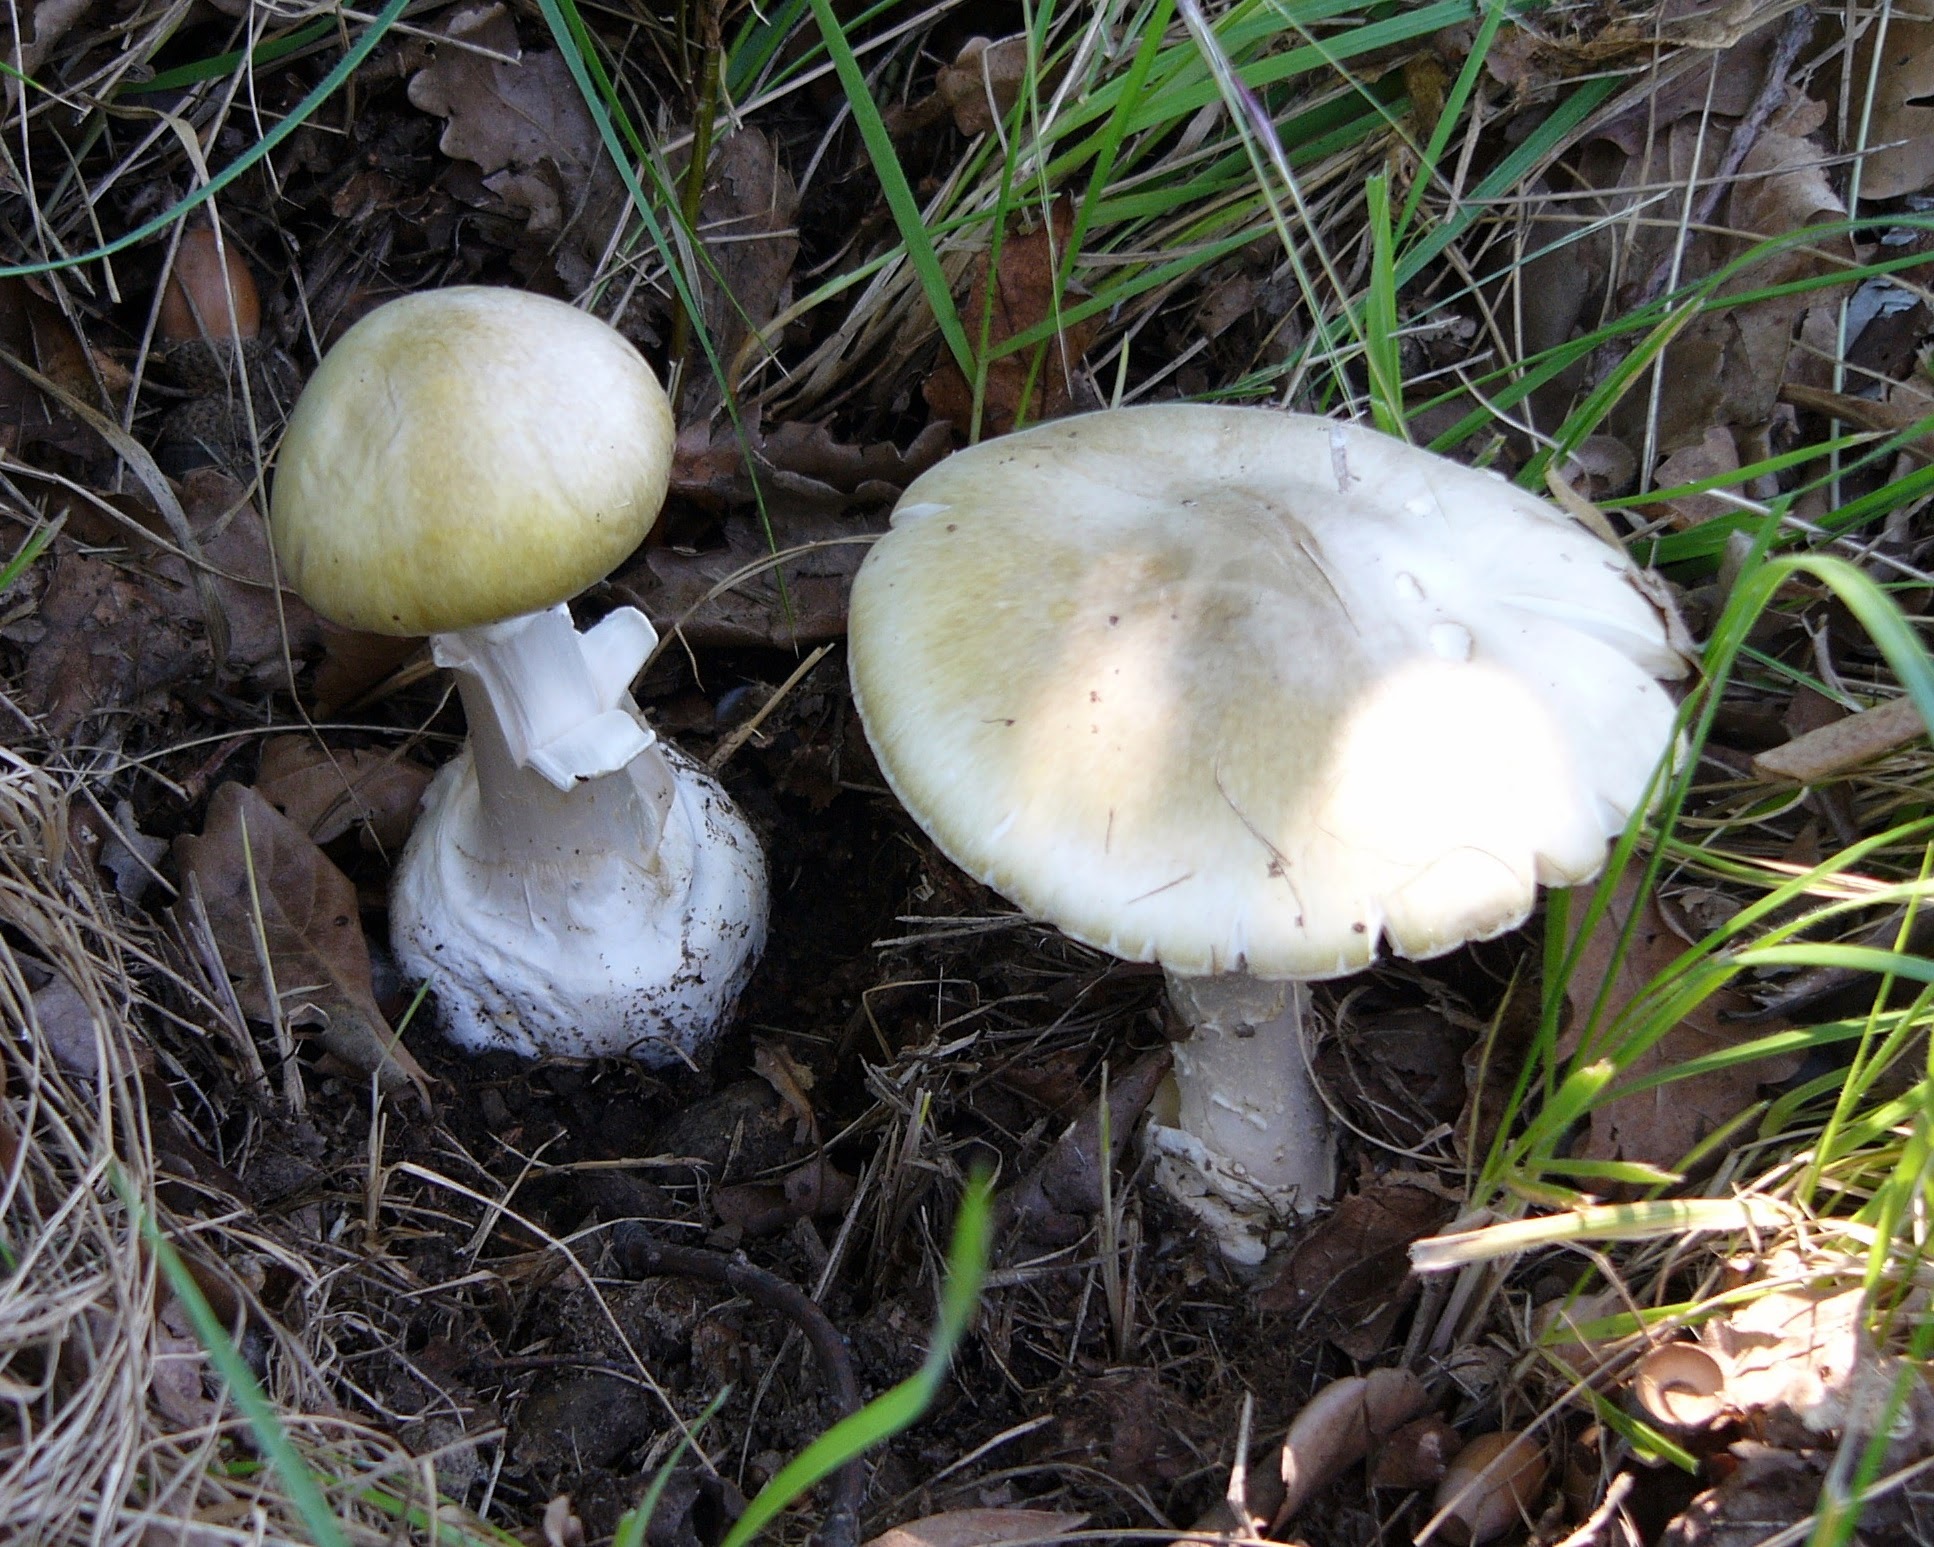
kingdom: Fungi
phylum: Basidiomycota
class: Agaricomycetes
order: Agaricales
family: Amanitaceae
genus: Amanita
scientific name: Amanita phalloides
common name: Death cap
